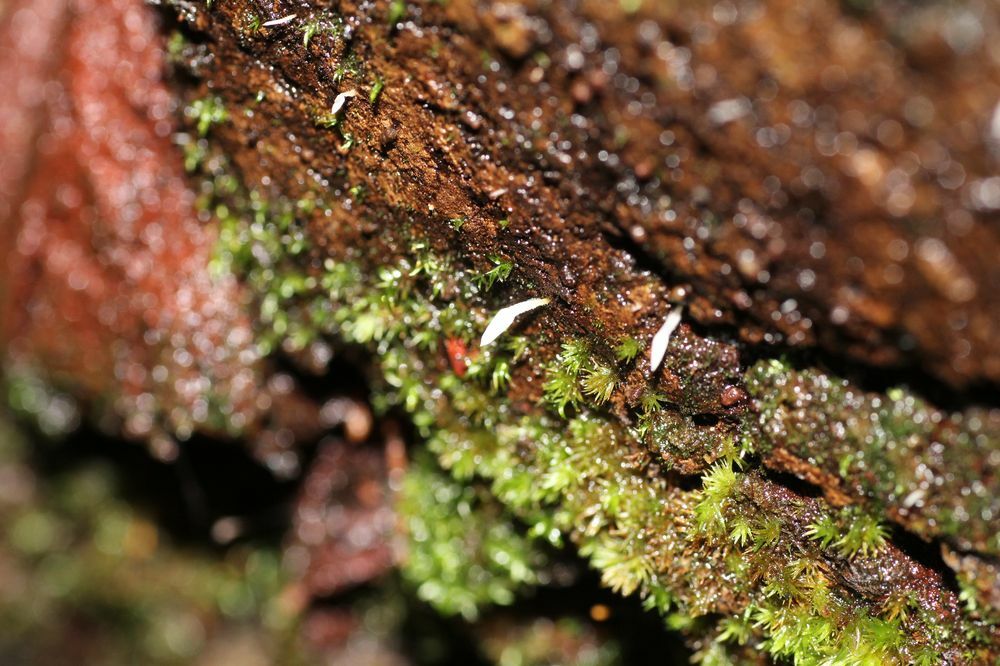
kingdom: Fungi
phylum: Basidiomycota
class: Agaricomycetes
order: Agaricales
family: Clavariaceae
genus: Mucronella
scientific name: Mucronella pendula
